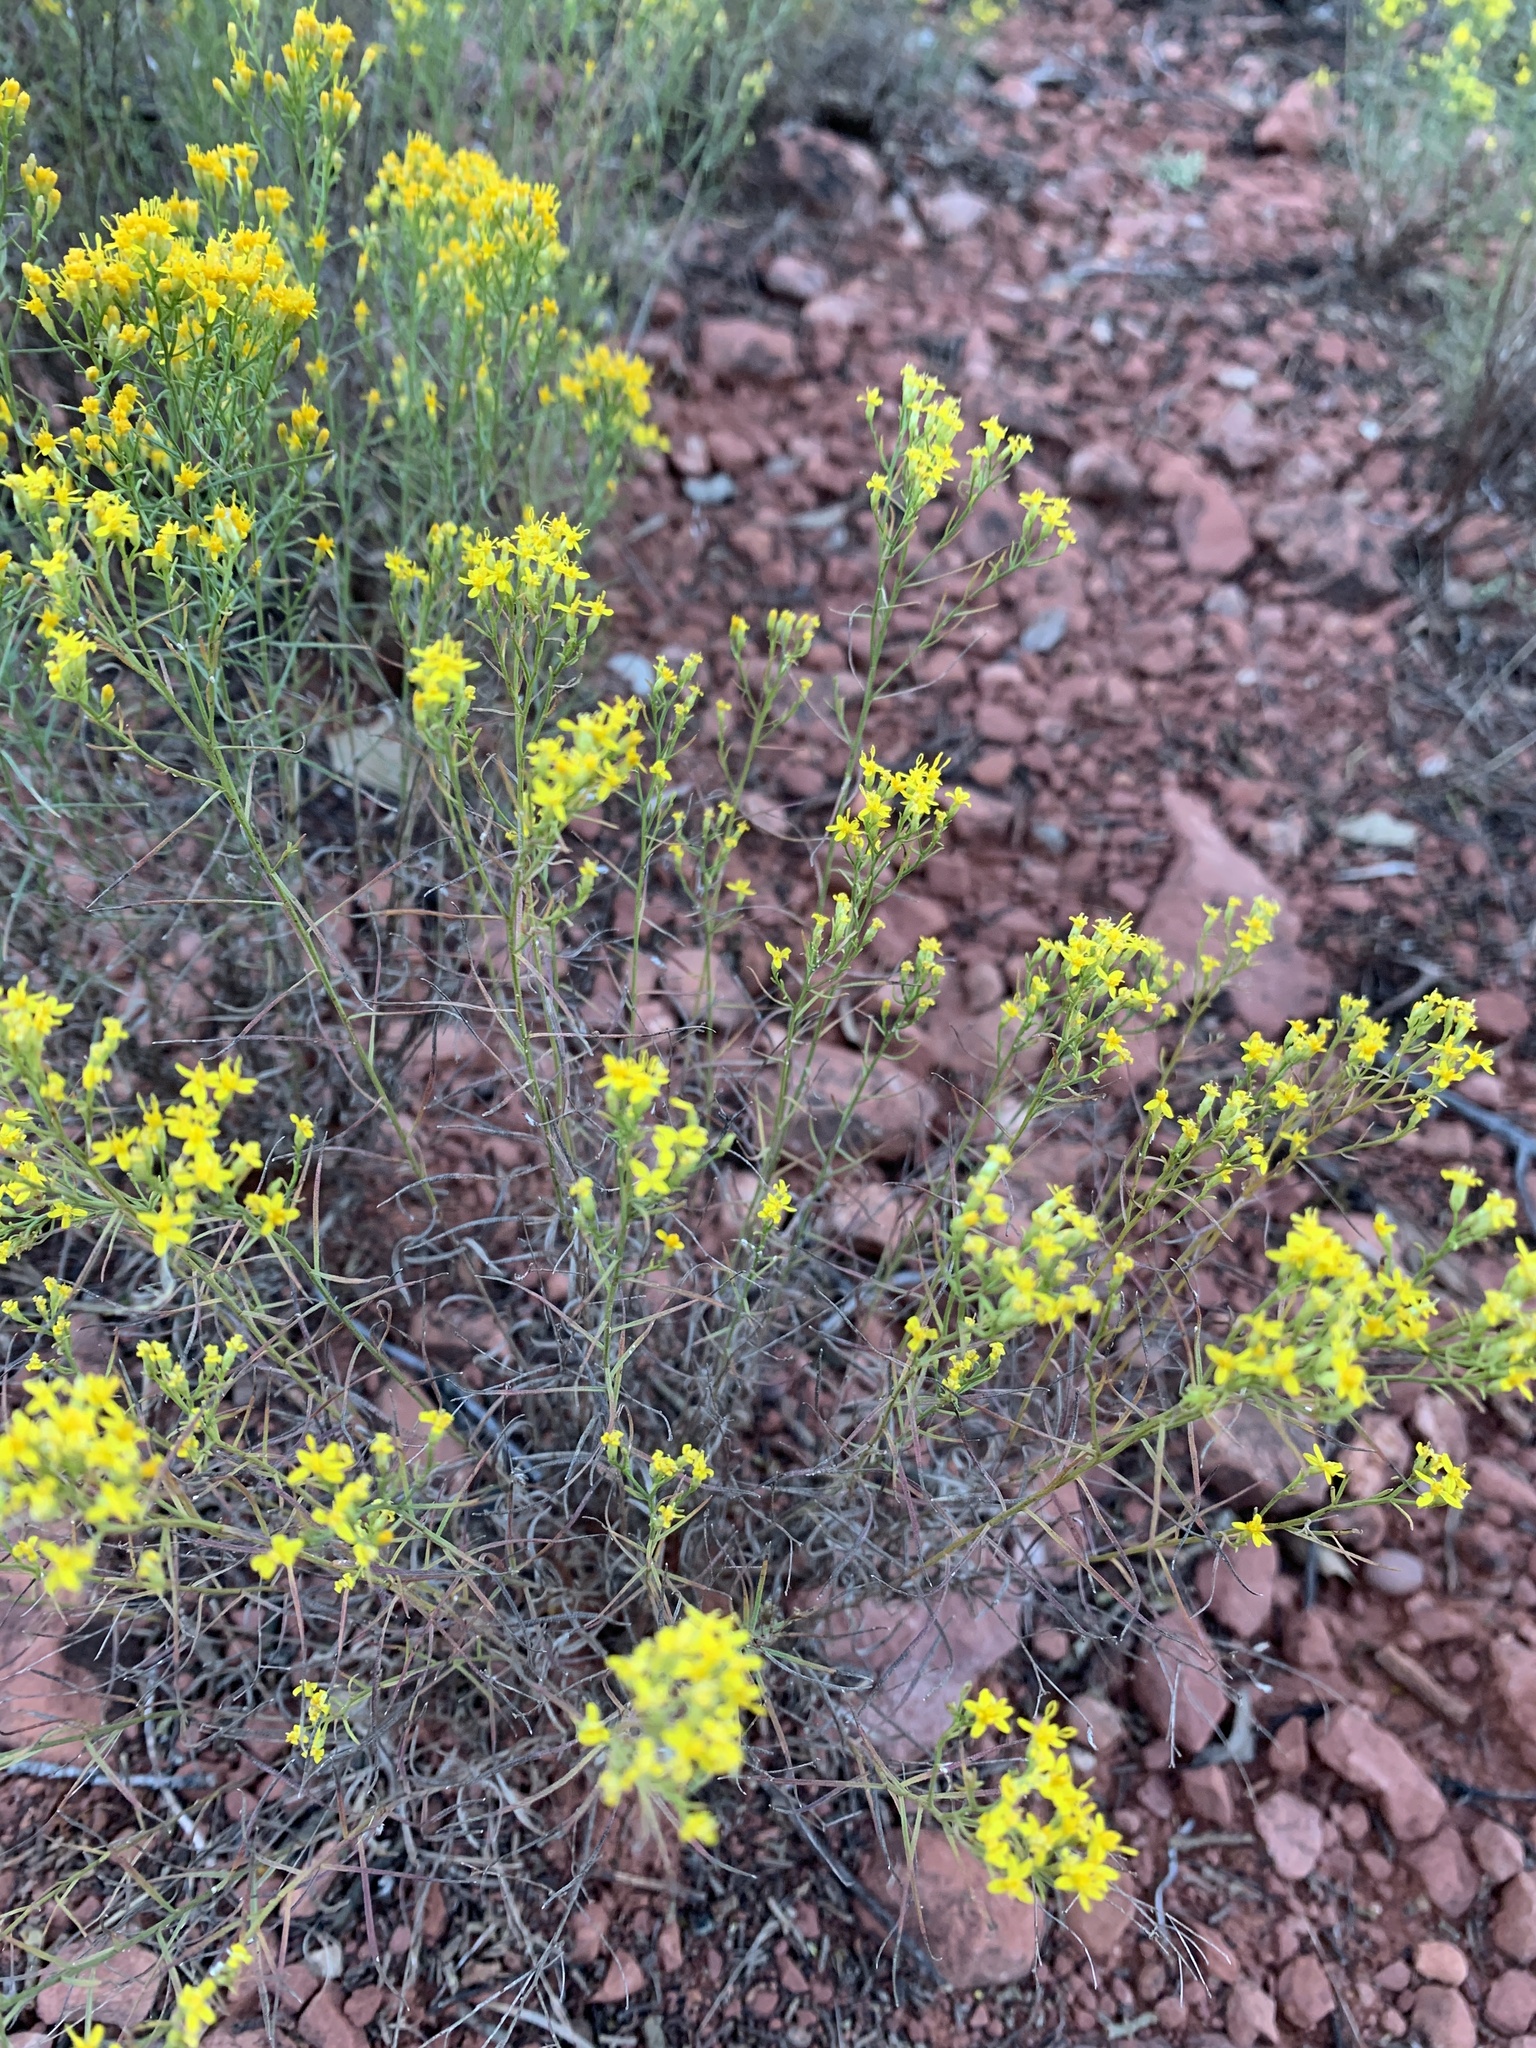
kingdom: Plantae
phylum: Tracheophyta
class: Magnoliopsida
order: Asterales
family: Asteraceae
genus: Gutierrezia
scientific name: Gutierrezia sarothrae
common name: Broom snakeweed
